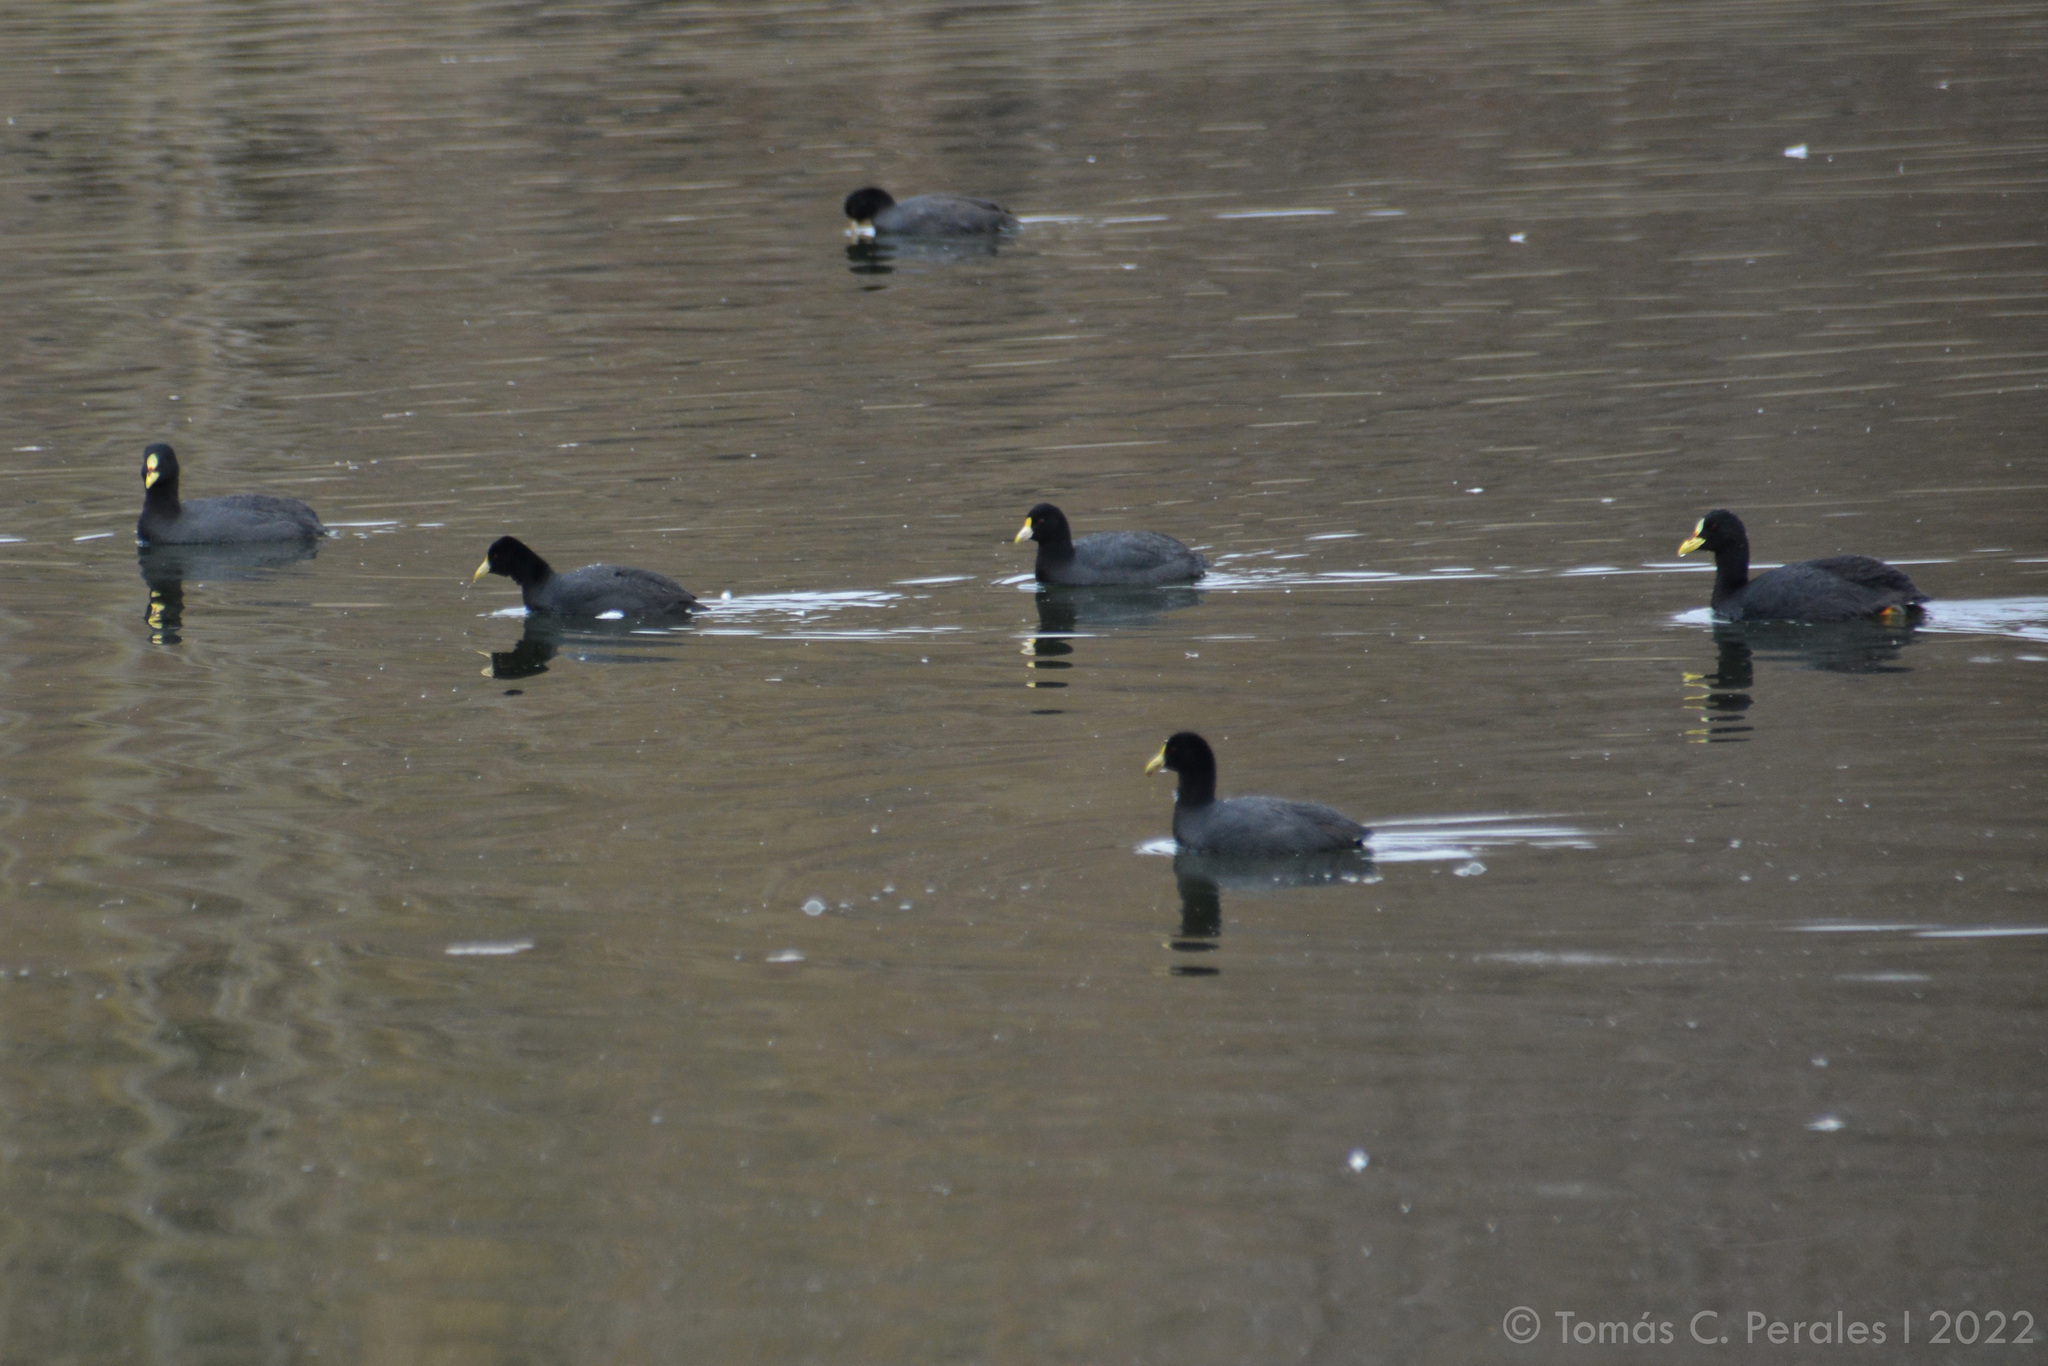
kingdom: Animalia
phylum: Chordata
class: Aves
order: Gruiformes
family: Rallidae
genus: Fulica
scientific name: Fulica armillata
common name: Red-gartered coot
